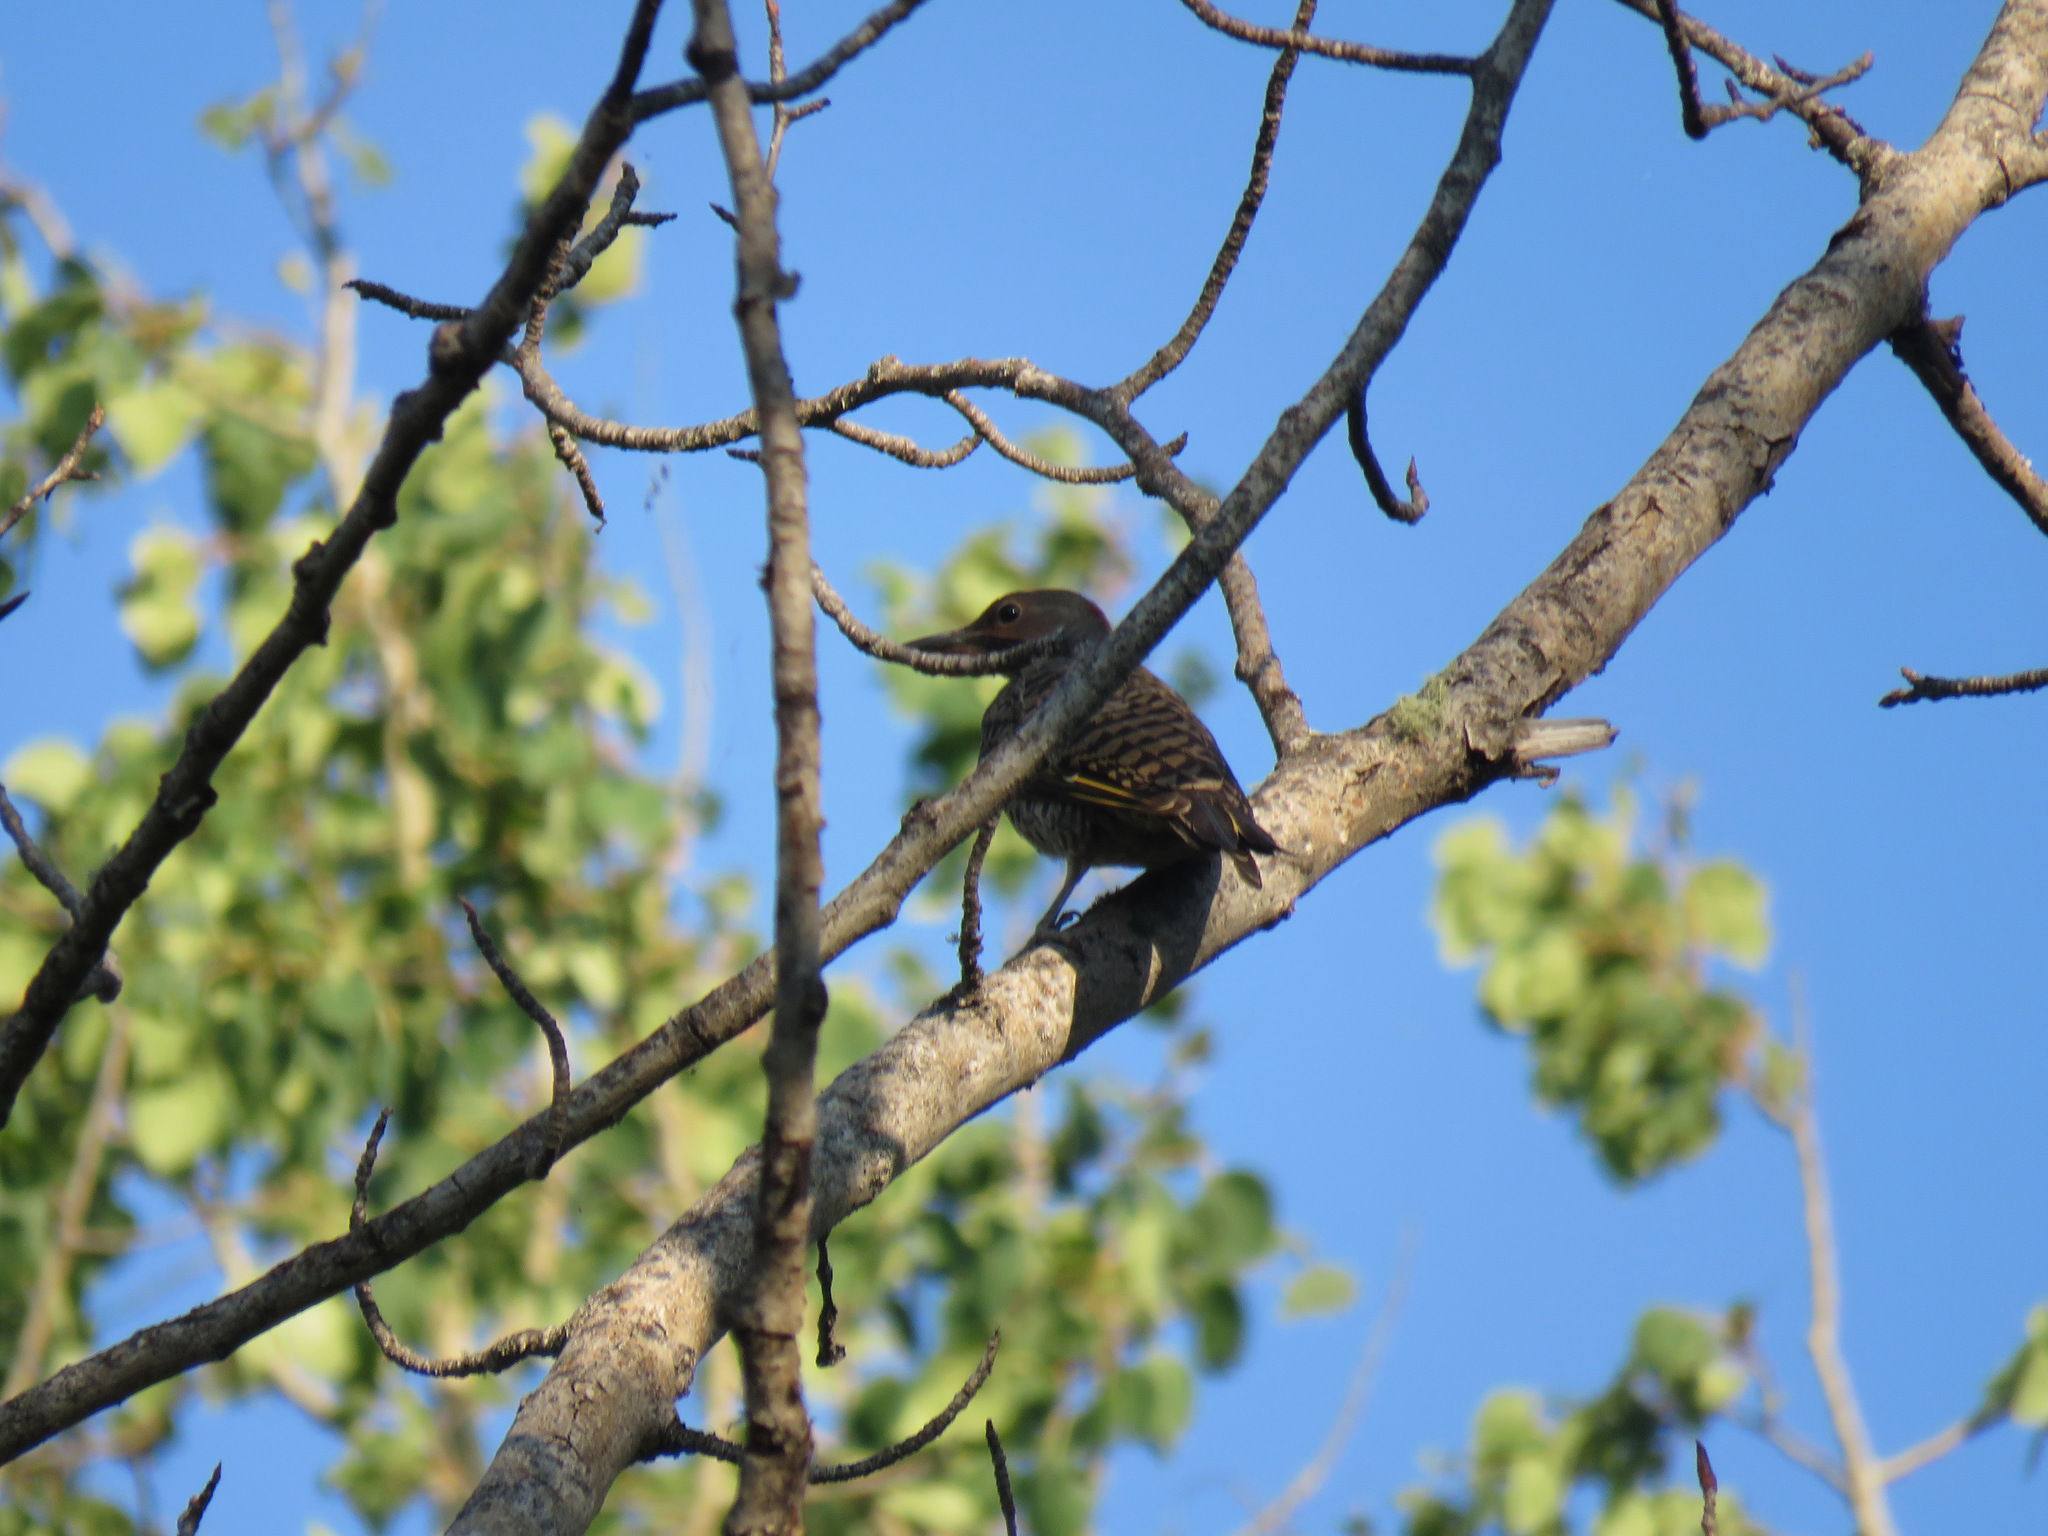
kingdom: Animalia
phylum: Chordata
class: Aves
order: Piciformes
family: Picidae
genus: Colaptes
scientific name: Colaptes auratus
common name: Northern flicker
